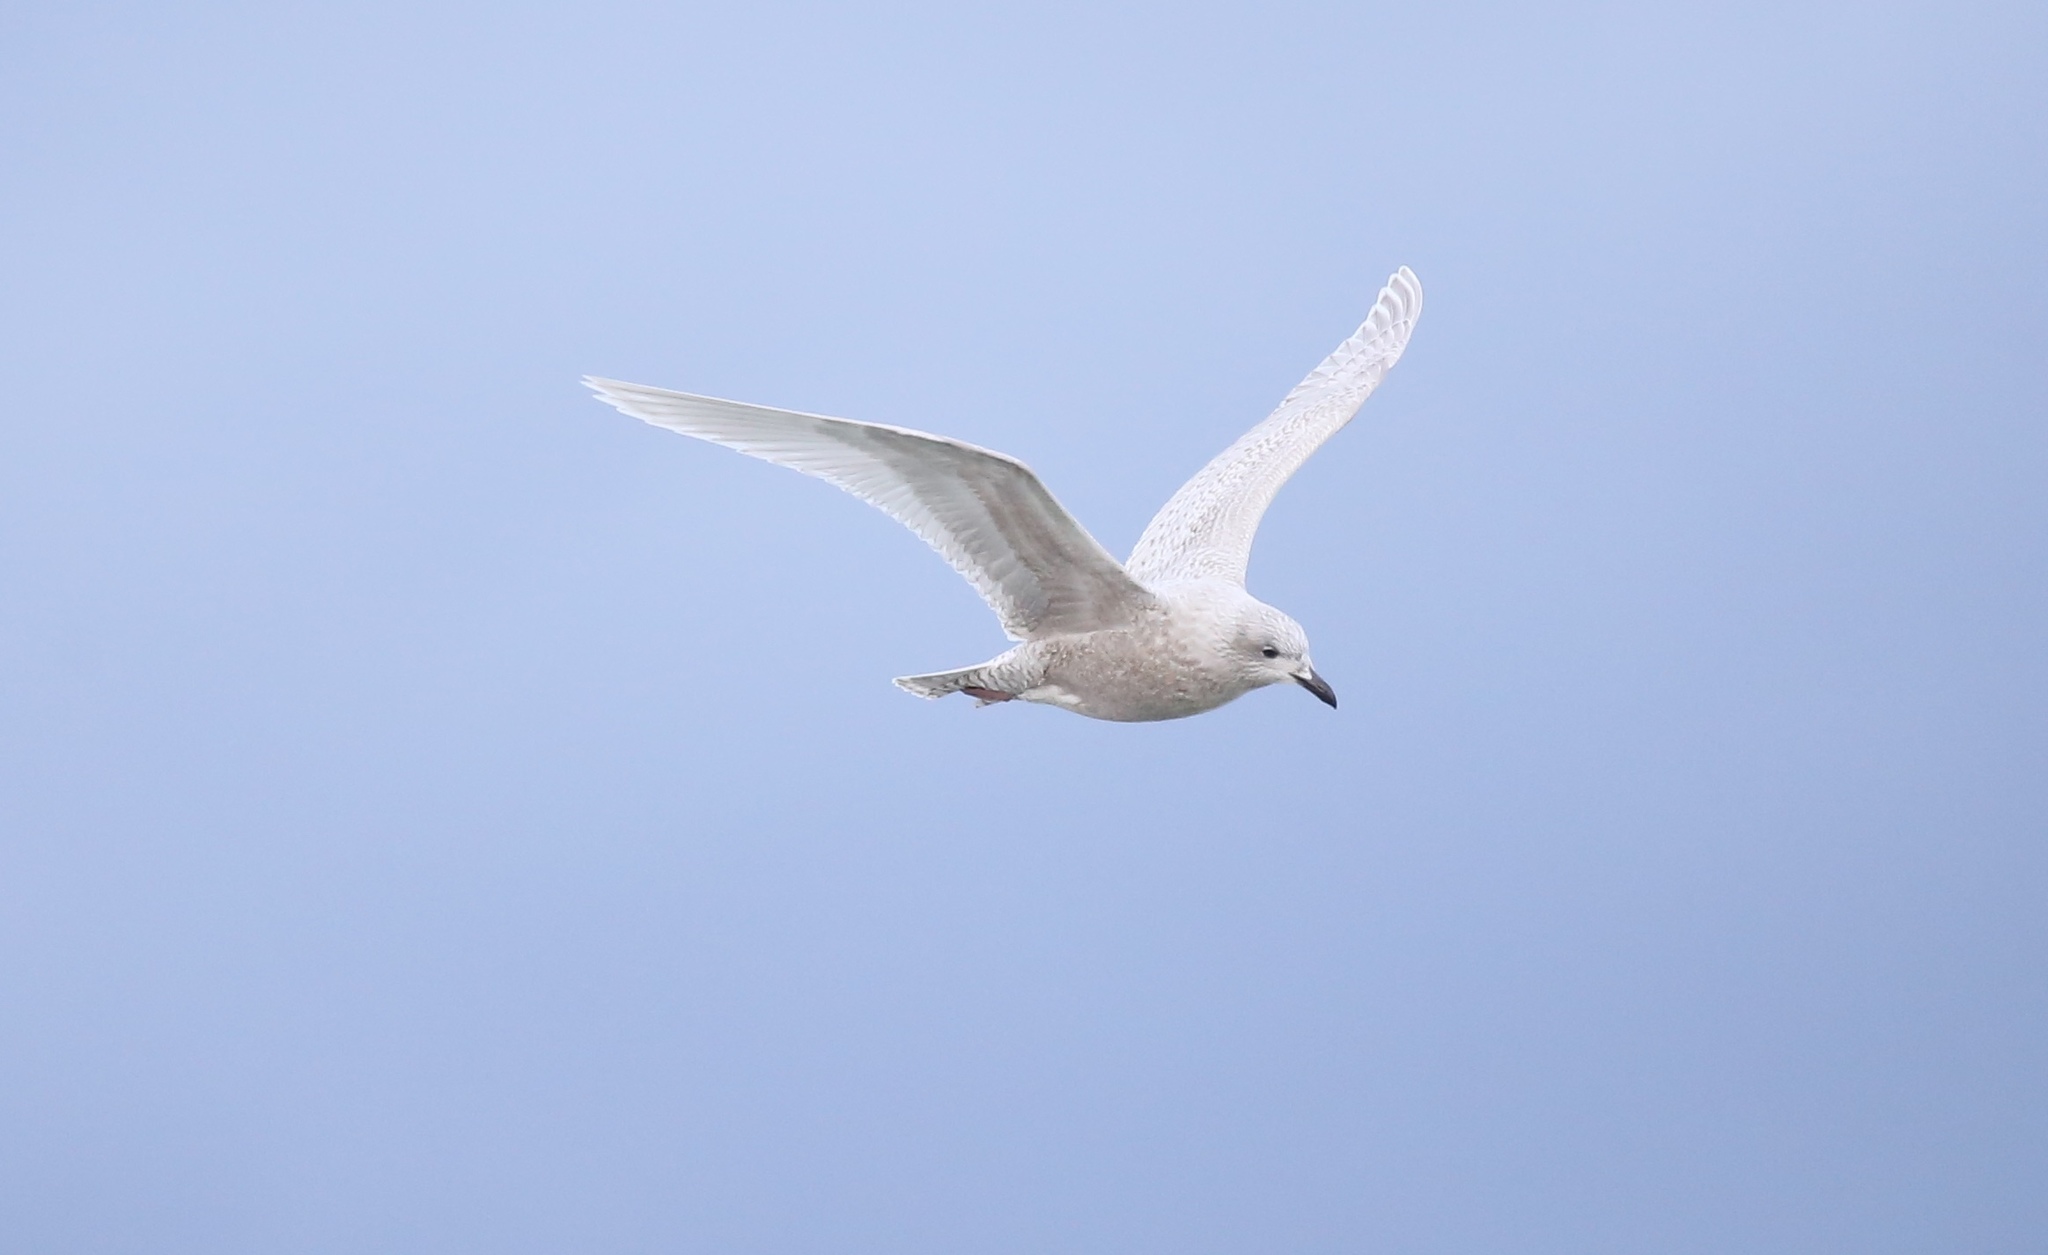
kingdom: Animalia
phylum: Chordata
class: Aves
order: Charadriiformes
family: Laridae
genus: Larus
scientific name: Larus glaucoides
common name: Iceland gull
